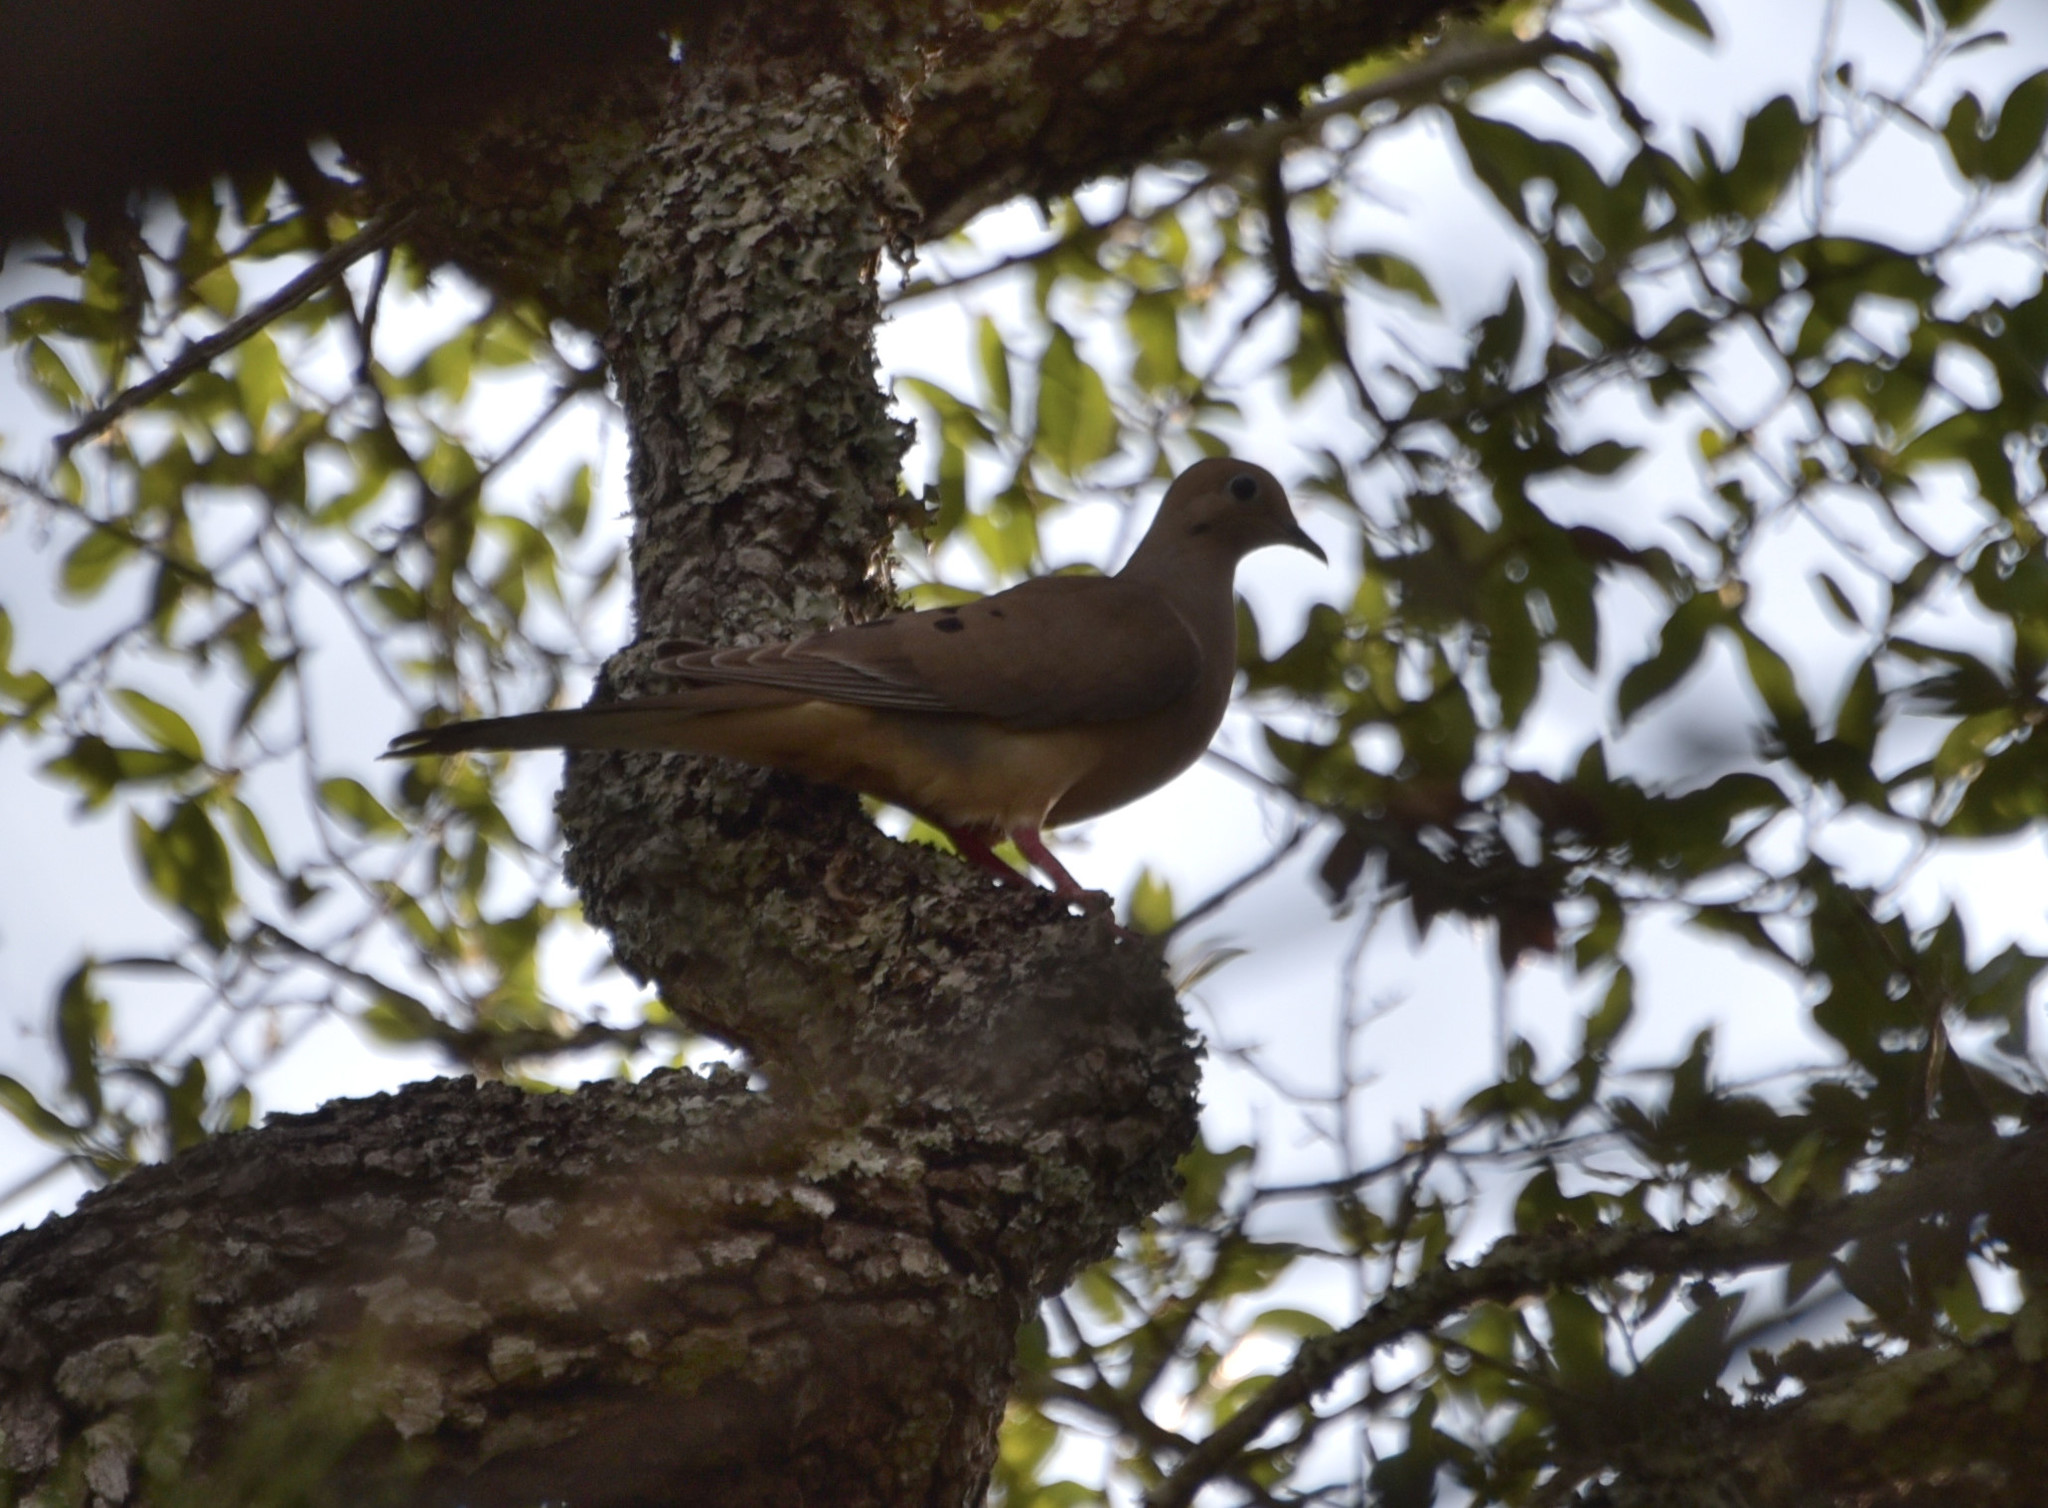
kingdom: Animalia
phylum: Chordata
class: Aves
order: Columbiformes
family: Columbidae
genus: Zenaida
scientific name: Zenaida macroura
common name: Mourning dove
